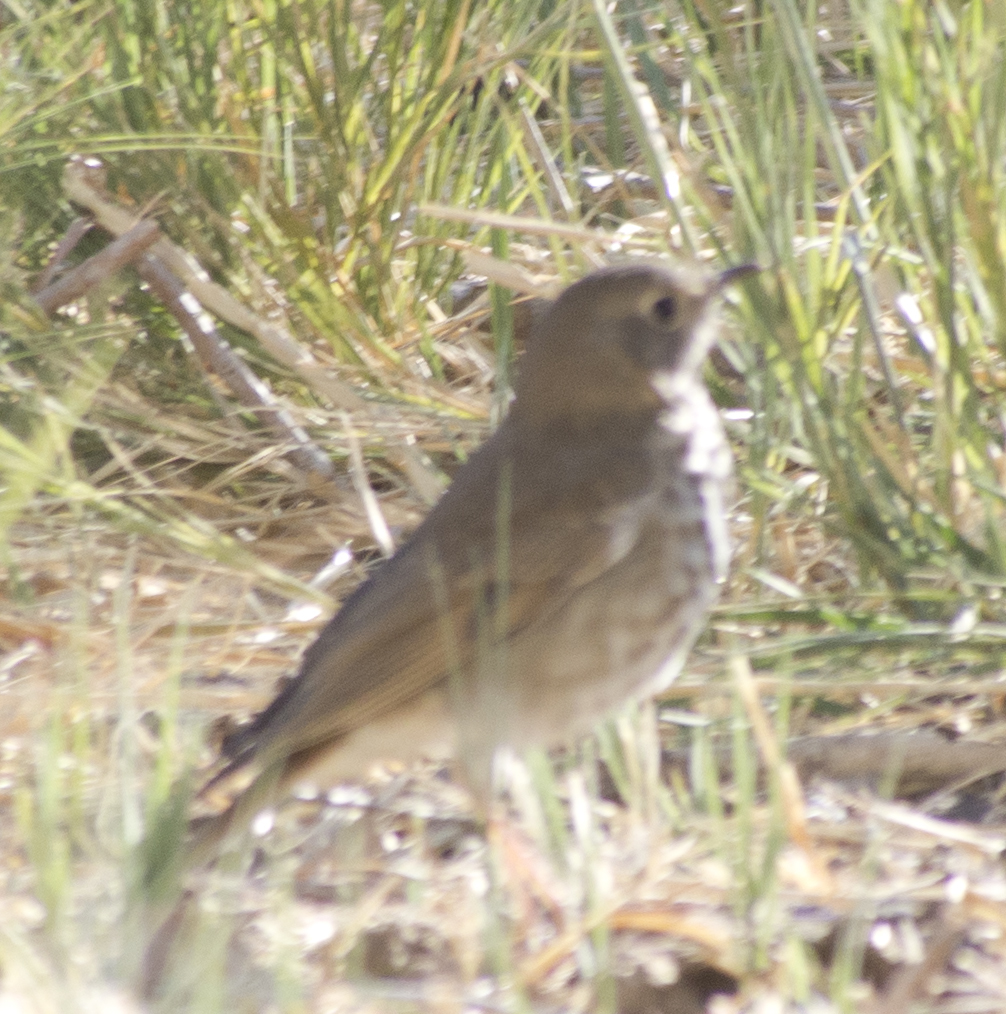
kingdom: Animalia
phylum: Chordata
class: Aves
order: Passeriformes
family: Turdidae
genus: Catharus
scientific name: Catharus guttatus
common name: Hermit thrush
